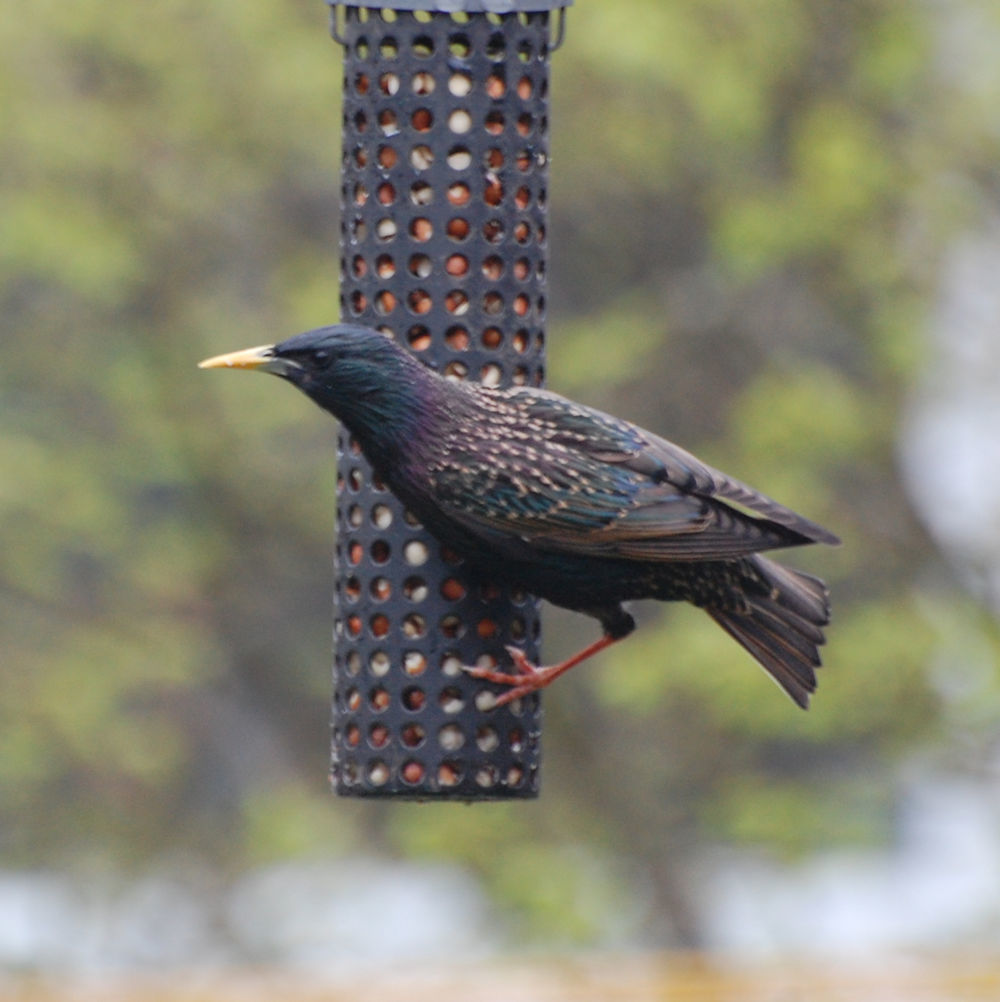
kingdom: Animalia
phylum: Chordata
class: Aves
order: Passeriformes
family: Sturnidae
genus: Sturnus
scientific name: Sturnus vulgaris
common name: Common starling
